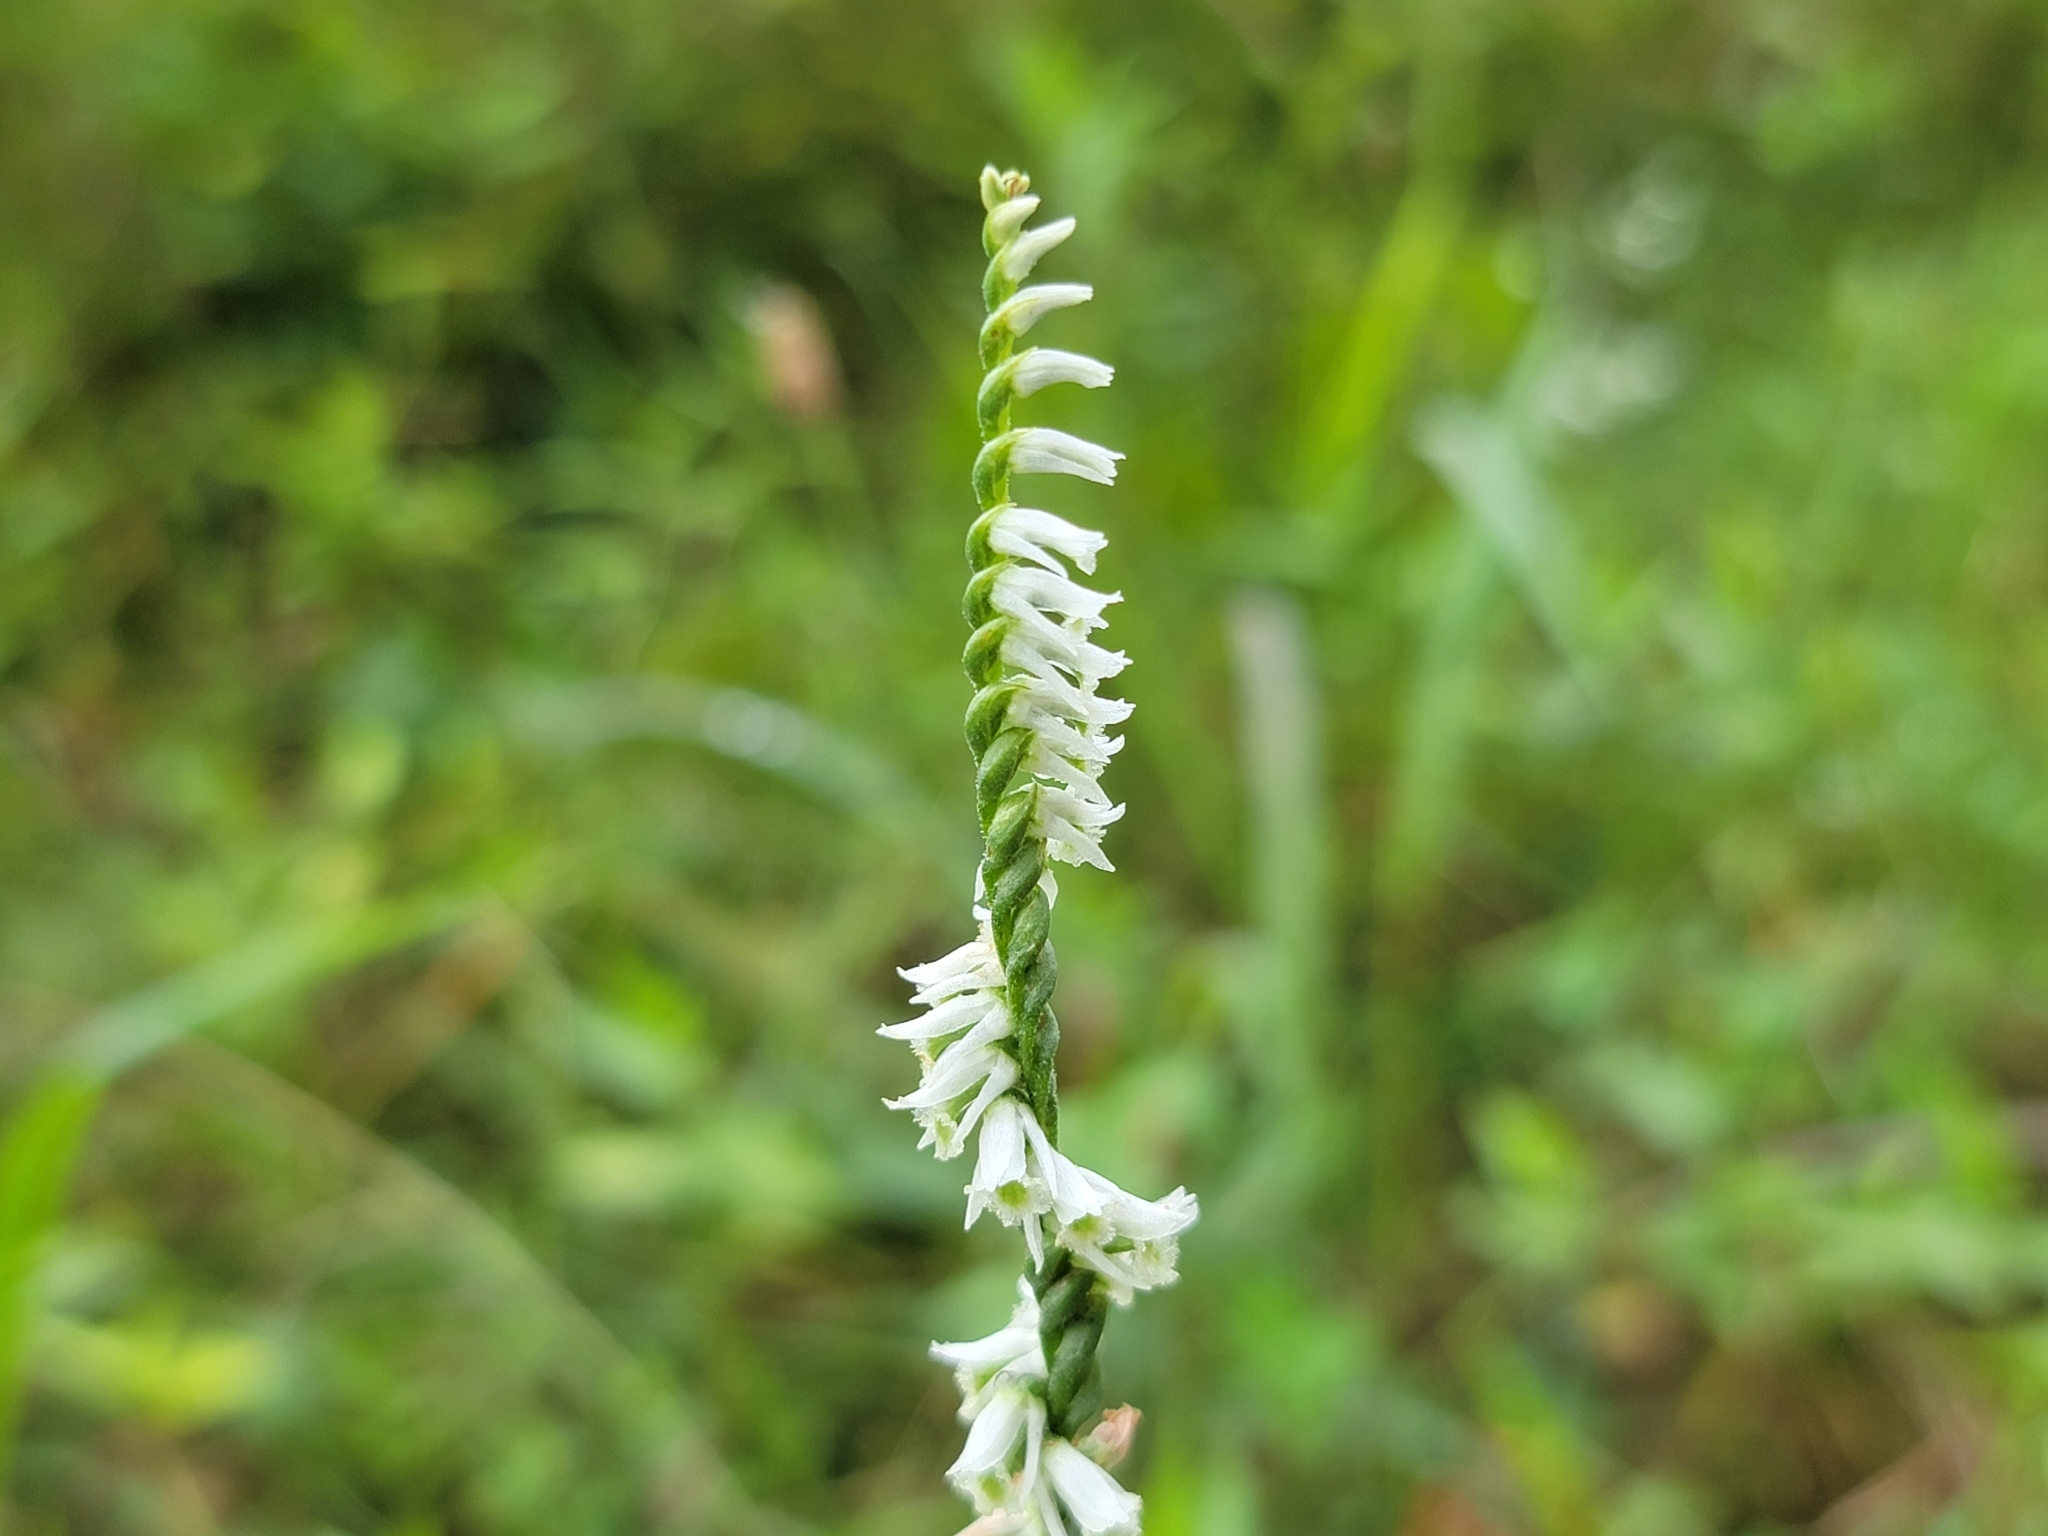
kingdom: Plantae
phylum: Tracheophyta
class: Liliopsida
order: Asparagales
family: Orchidaceae
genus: Spiranthes
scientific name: Spiranthes lacera
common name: Northern slender ladies'-tresses
